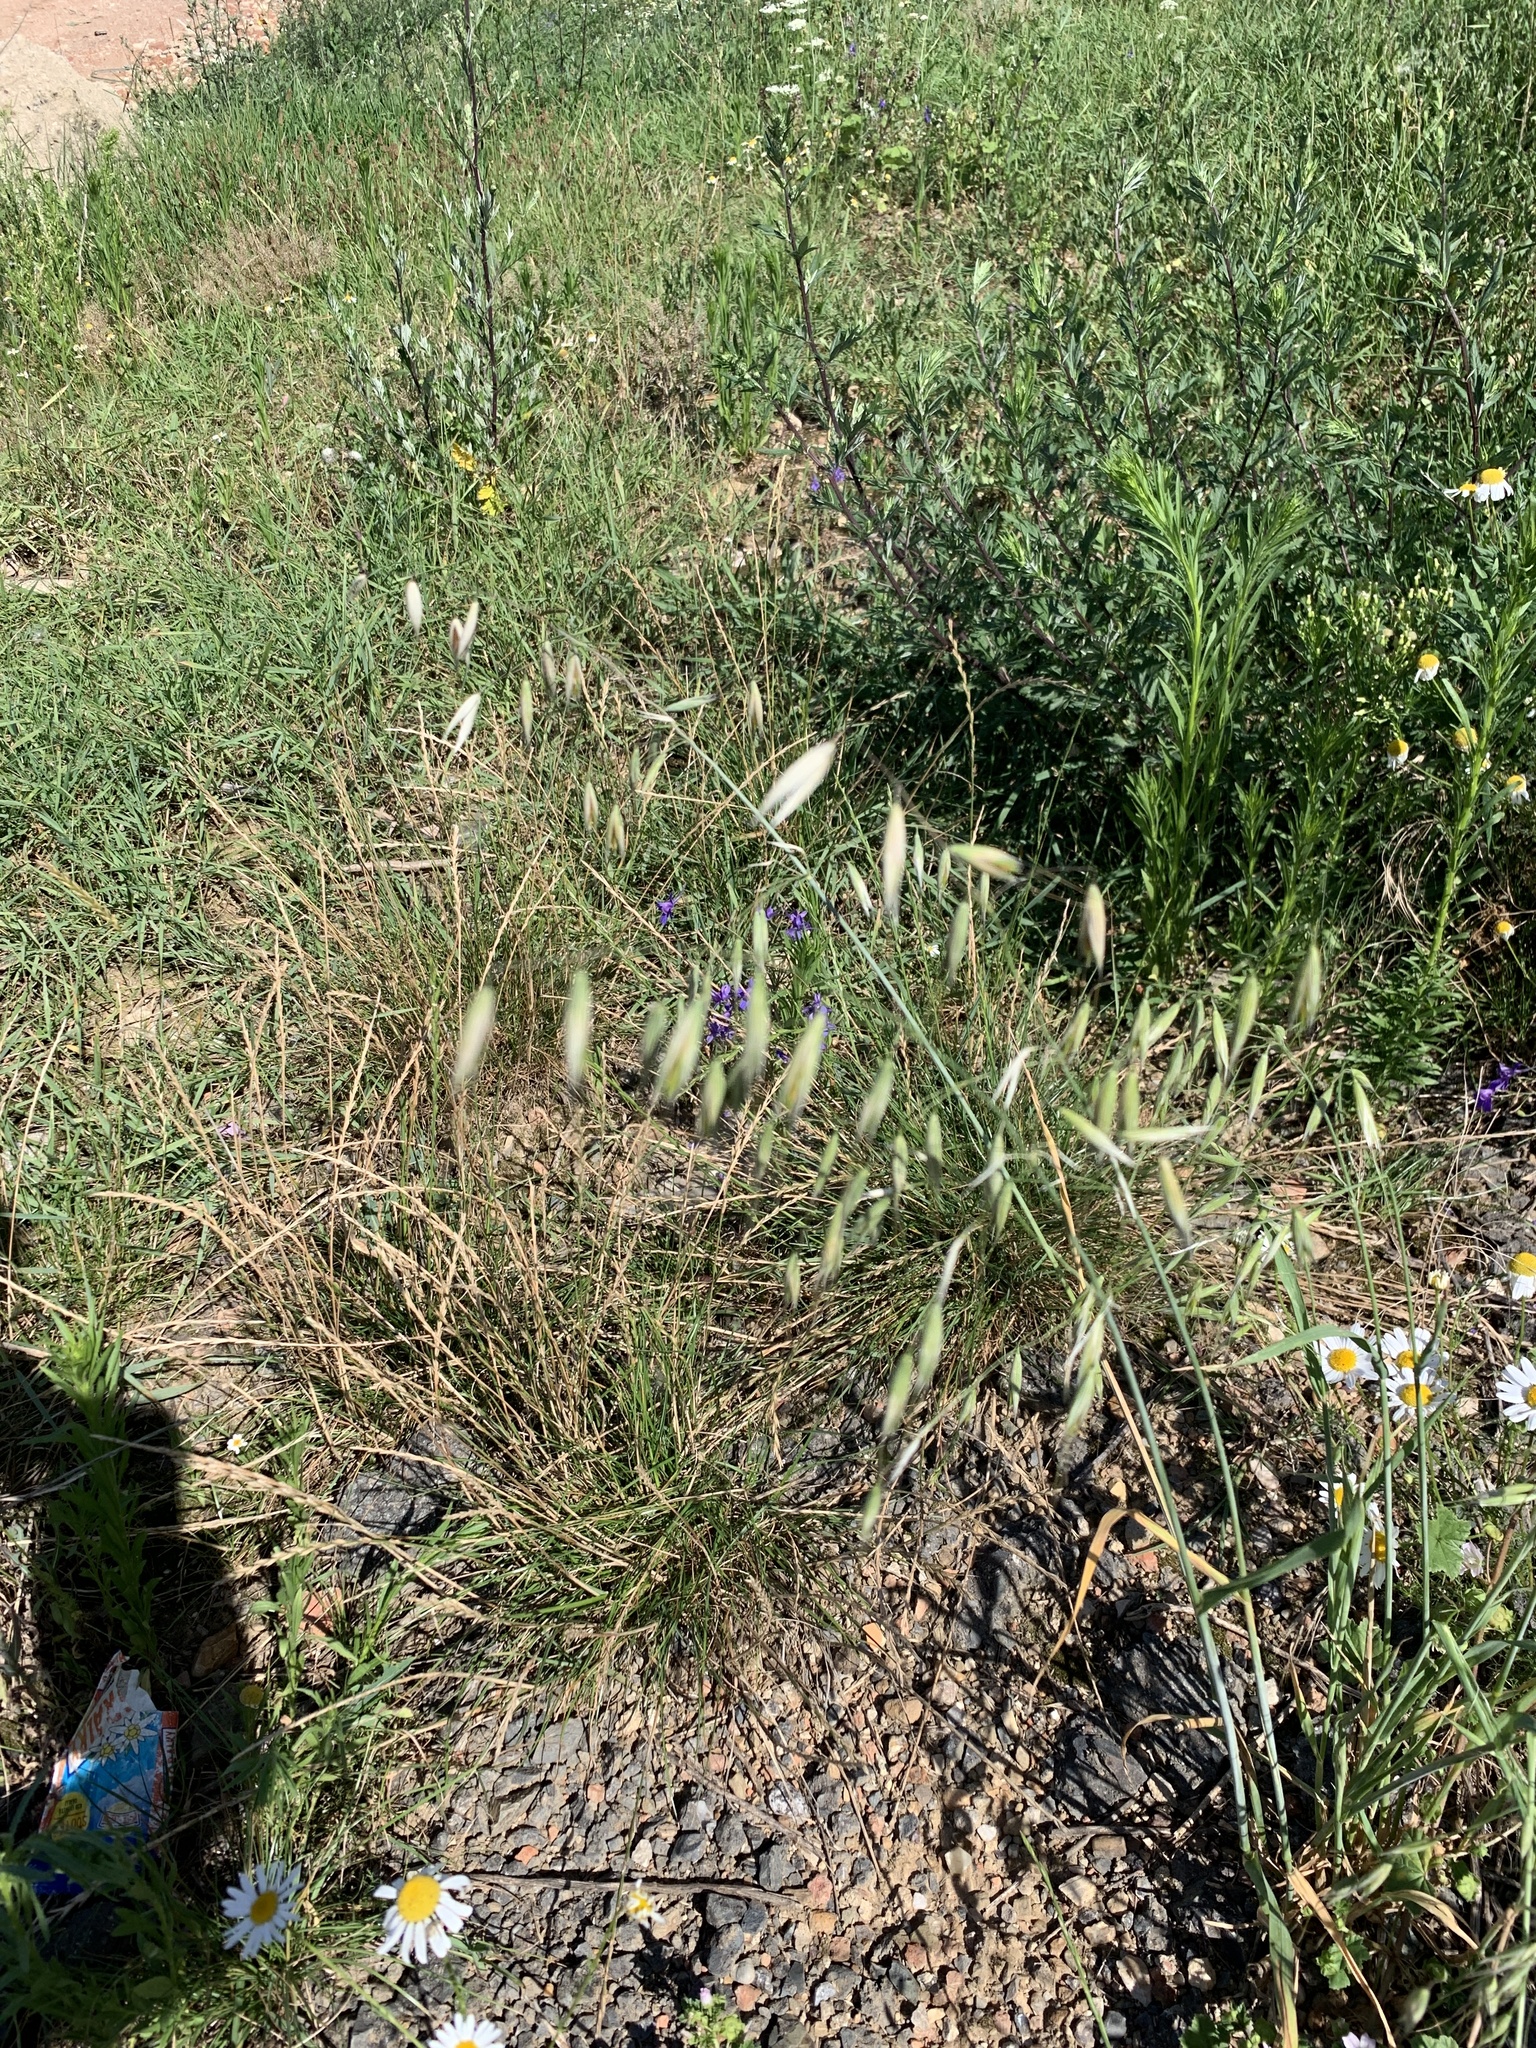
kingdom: Plantae
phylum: Tracheophyta
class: Liliopsida
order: Poales
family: Poaceae
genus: Avena
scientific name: Avena fatua
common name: Wild oat
